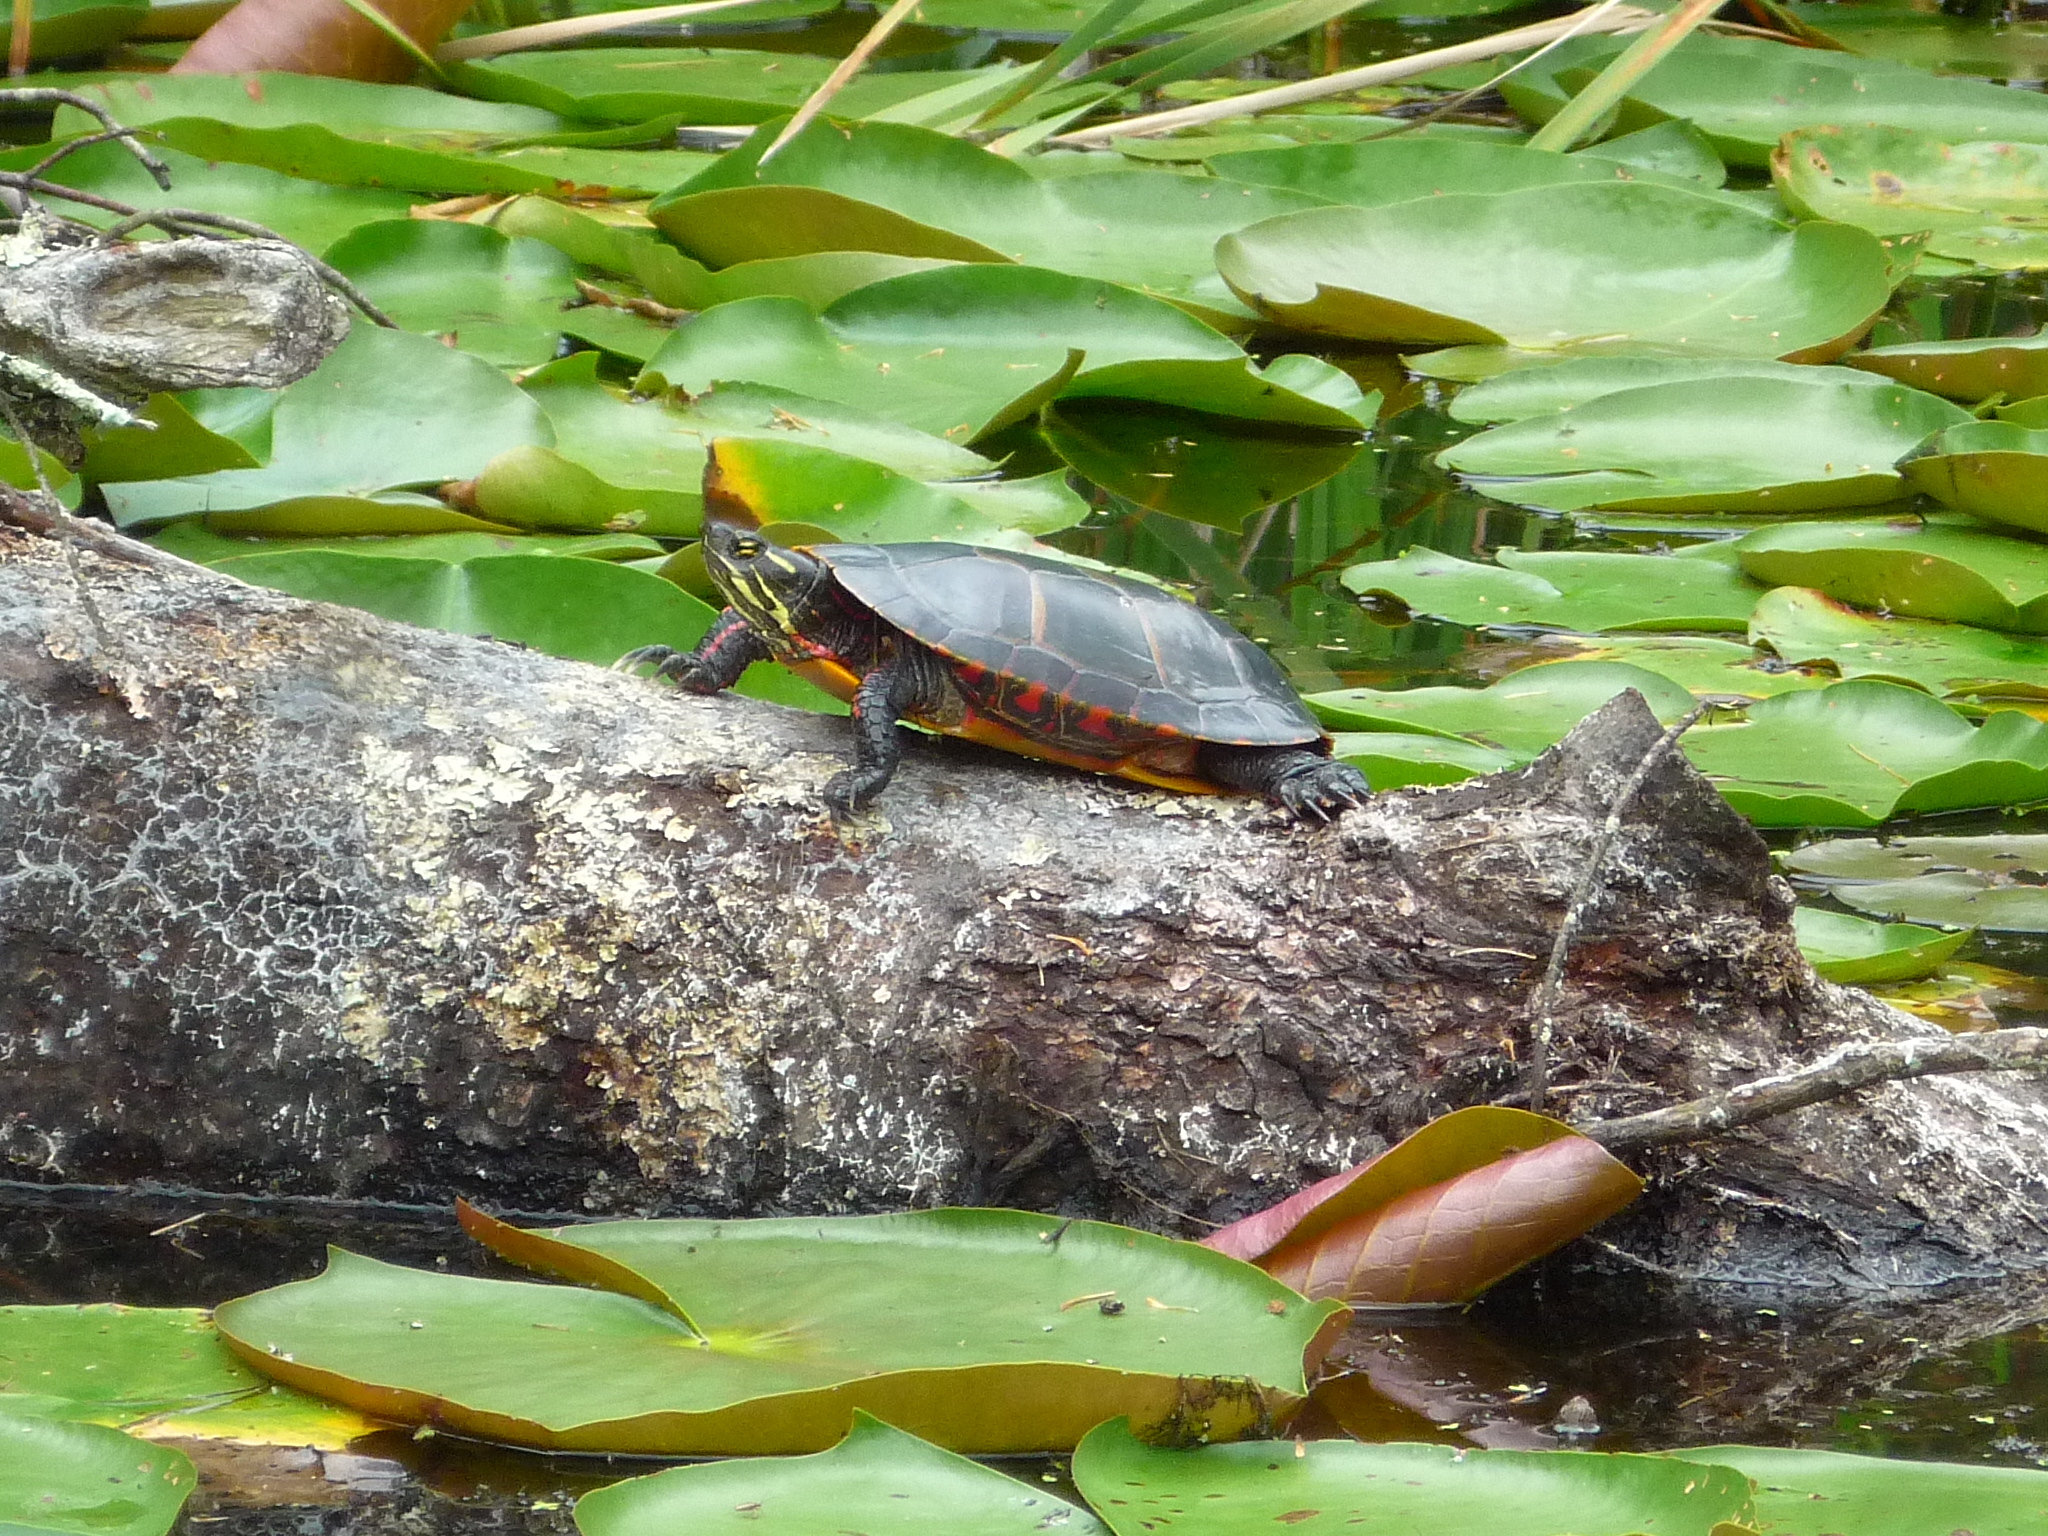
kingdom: Animalia
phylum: Chordata
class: Testudines
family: Emydidae
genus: Chrysemys
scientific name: Chrysemys picta
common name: Painted turtle
